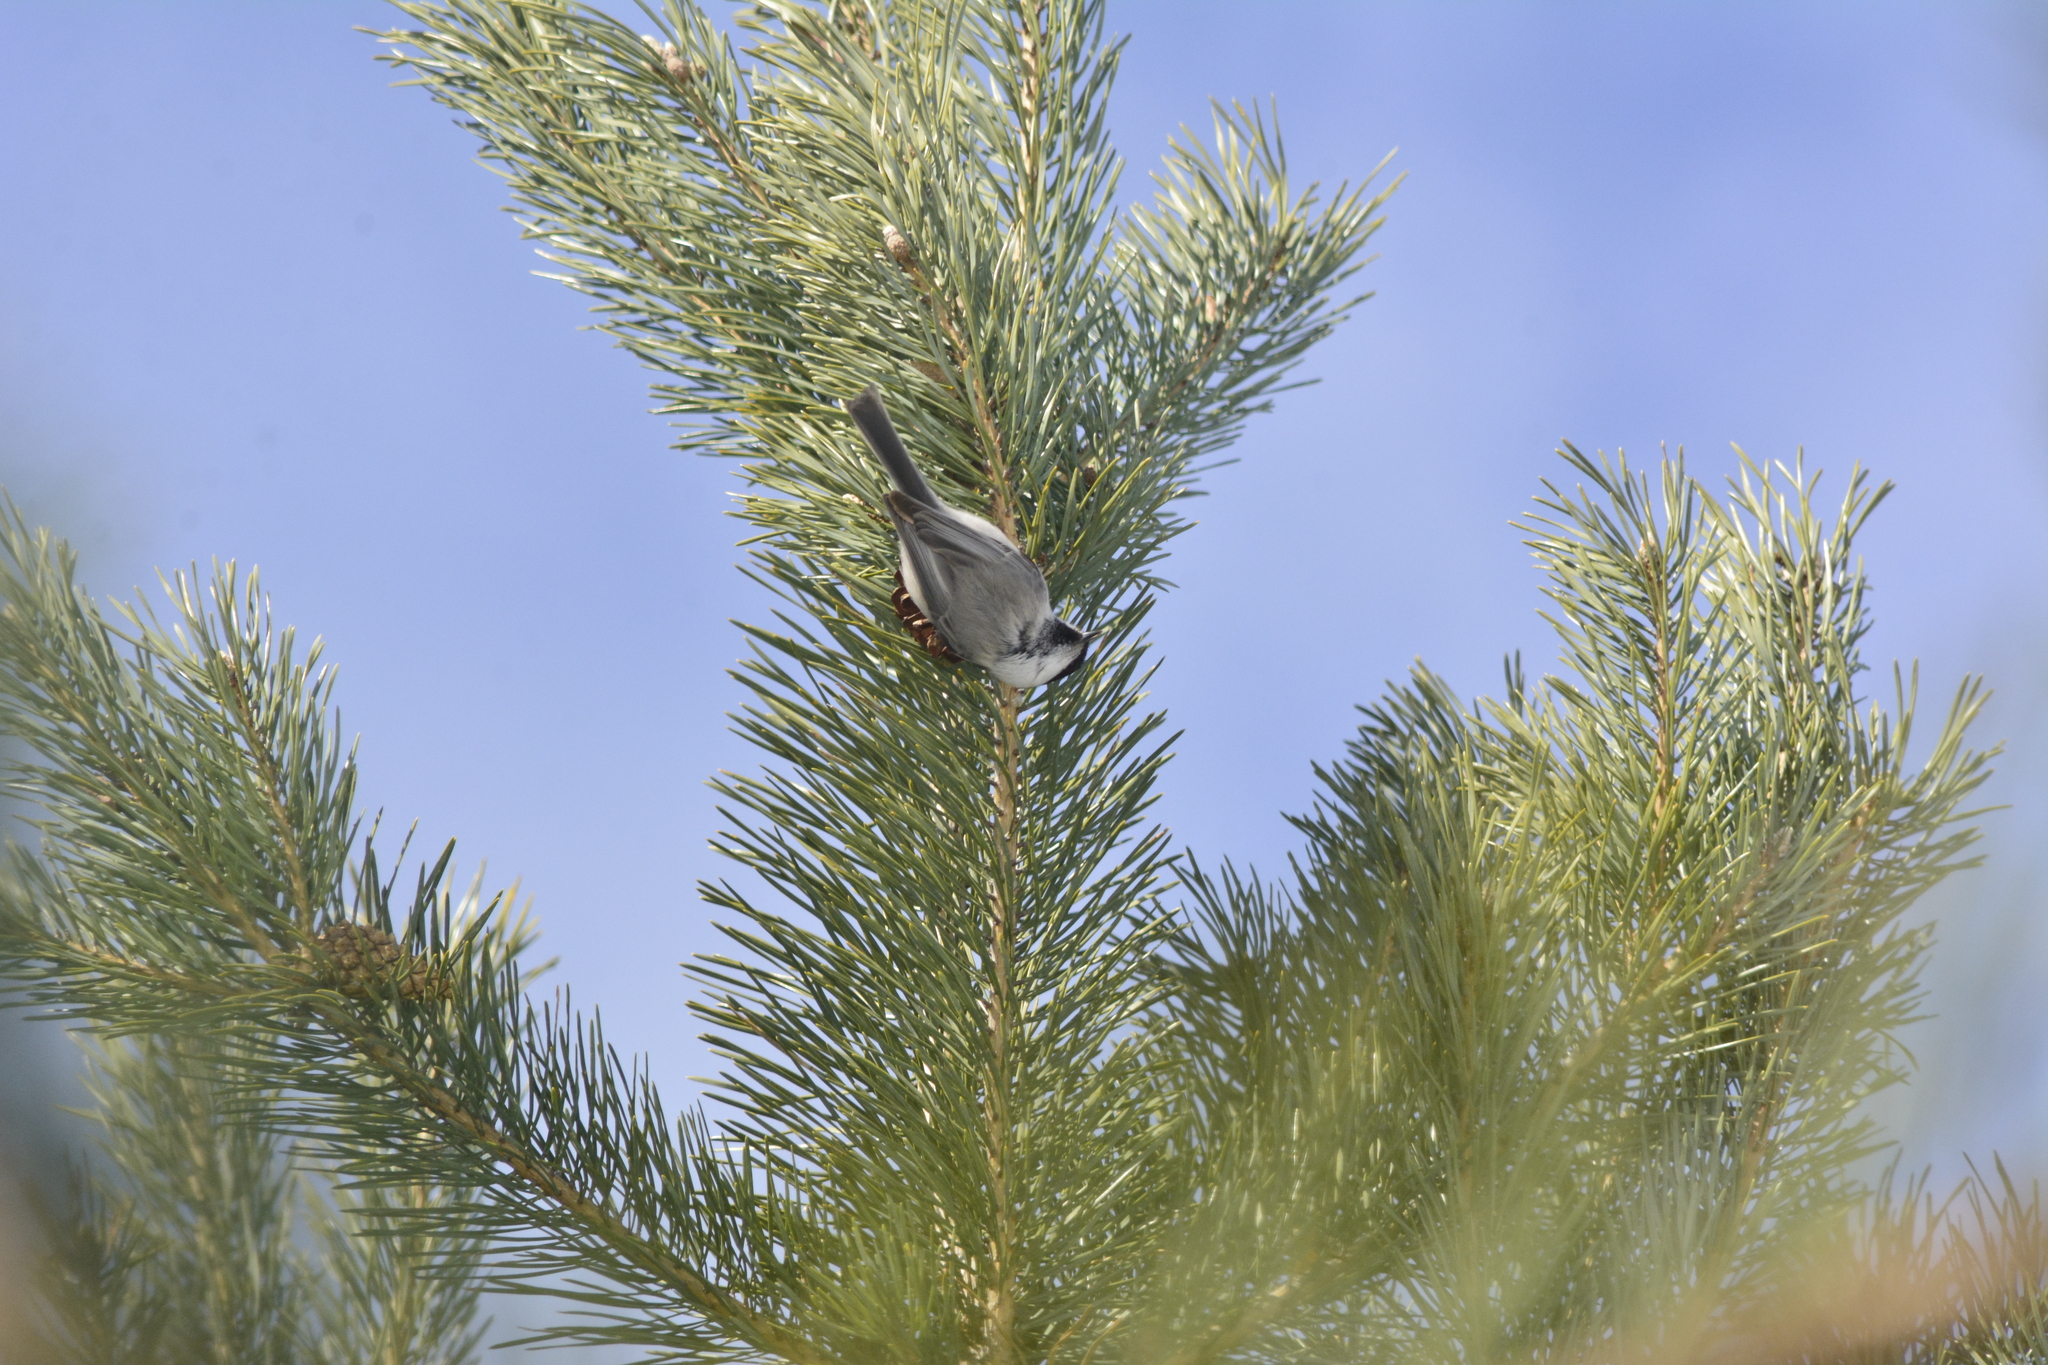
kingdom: Animalia
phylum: Chordata
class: Aves
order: Passeriformes
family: Paridae
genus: Poecile
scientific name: Poecile montanus
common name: Willow tit
